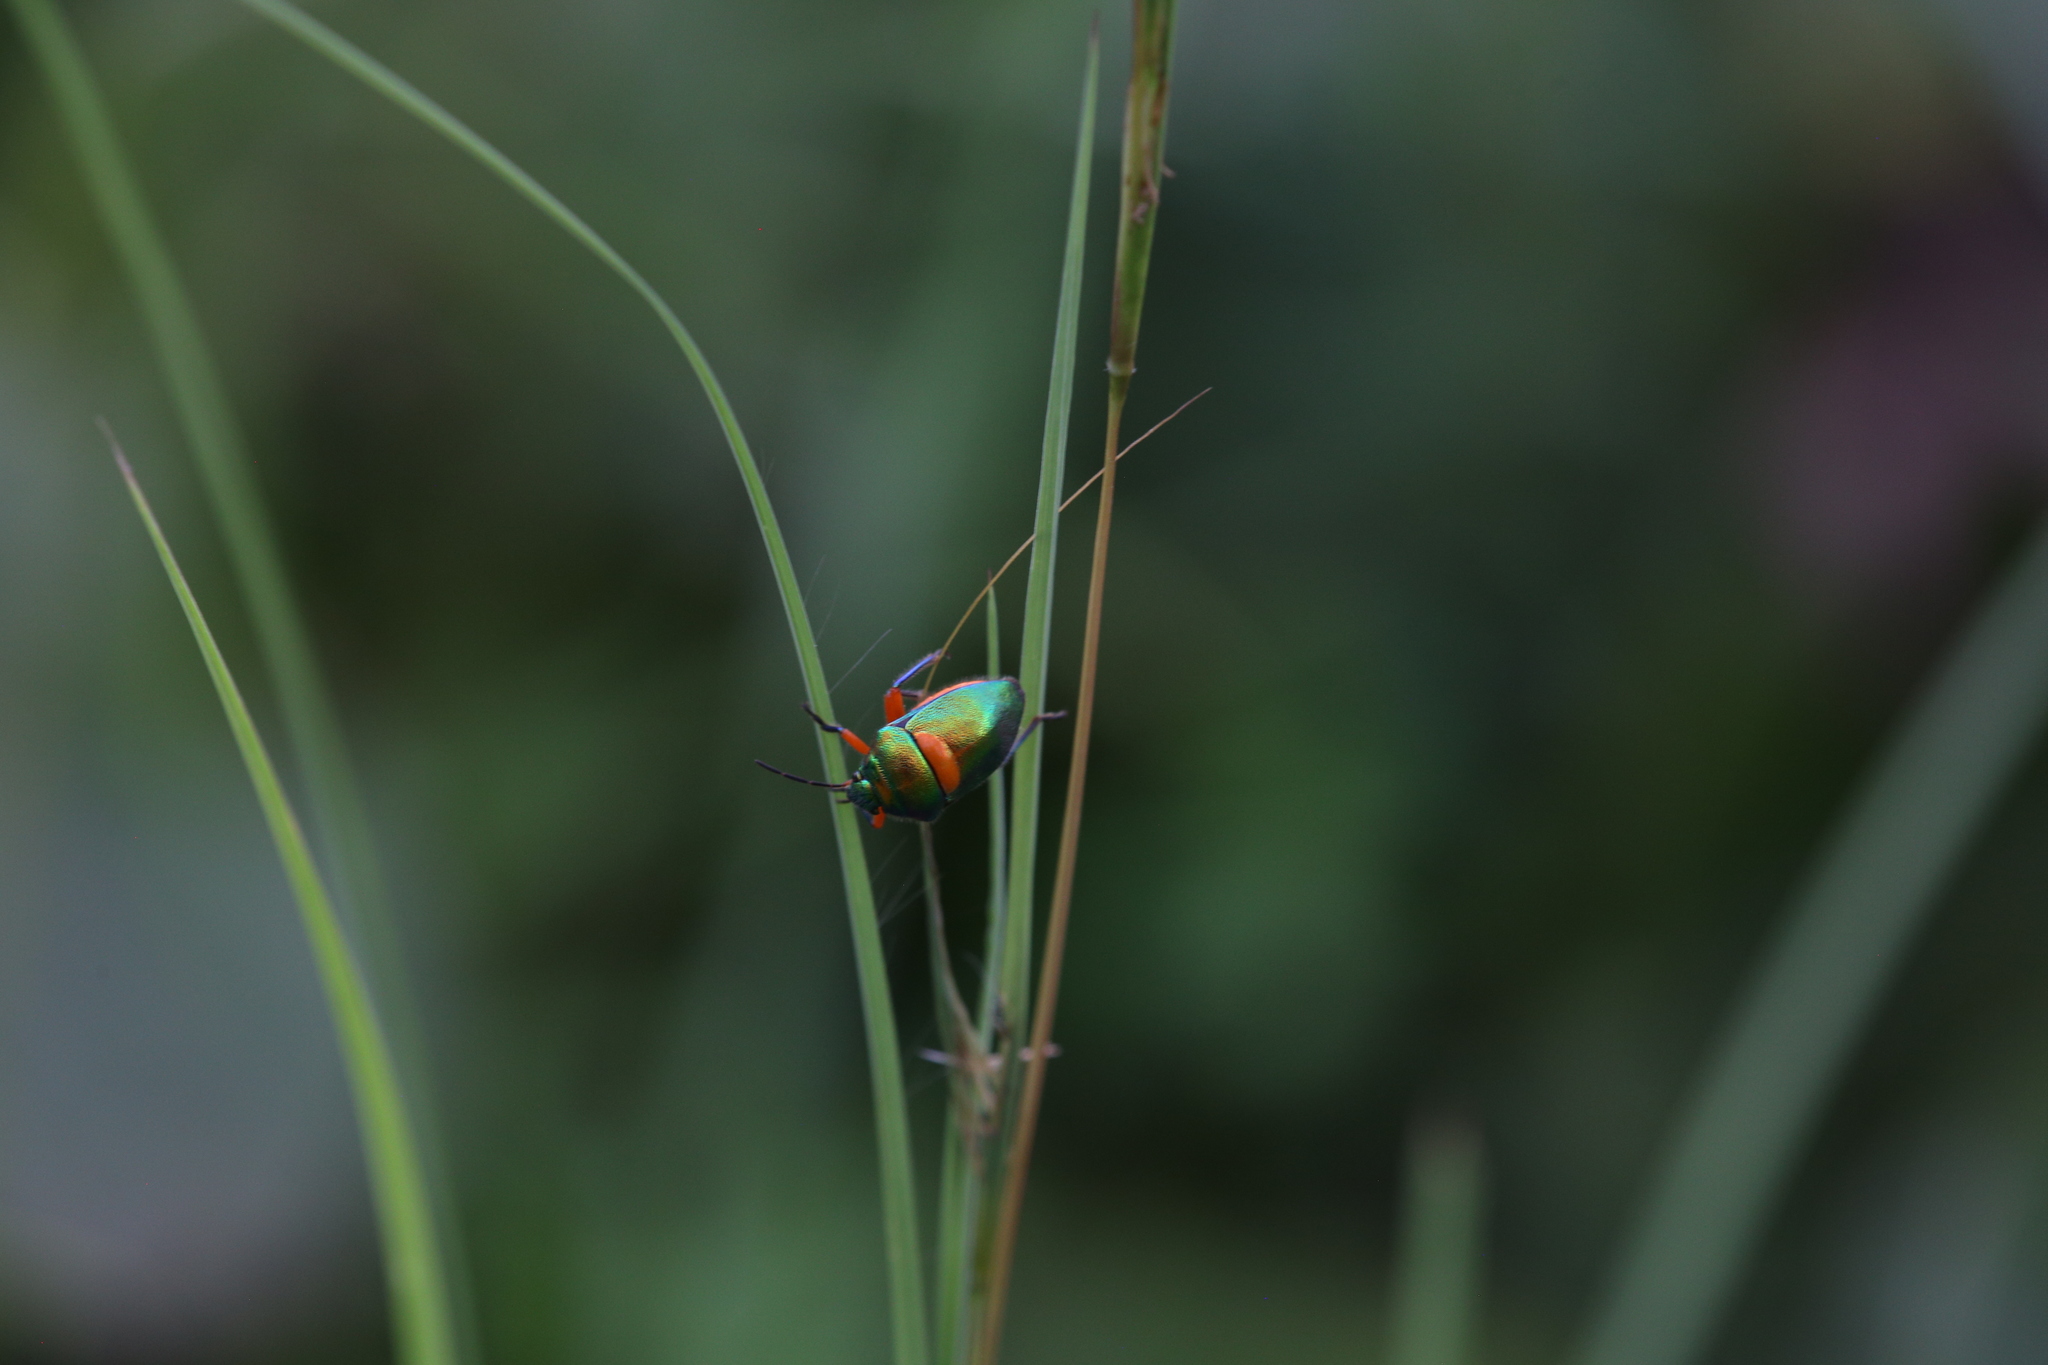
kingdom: Animalia
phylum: Arthropoda
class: Insecta
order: Hemiptera
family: Scutelleridae
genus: Lampromicra
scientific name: Lampromicra senator
